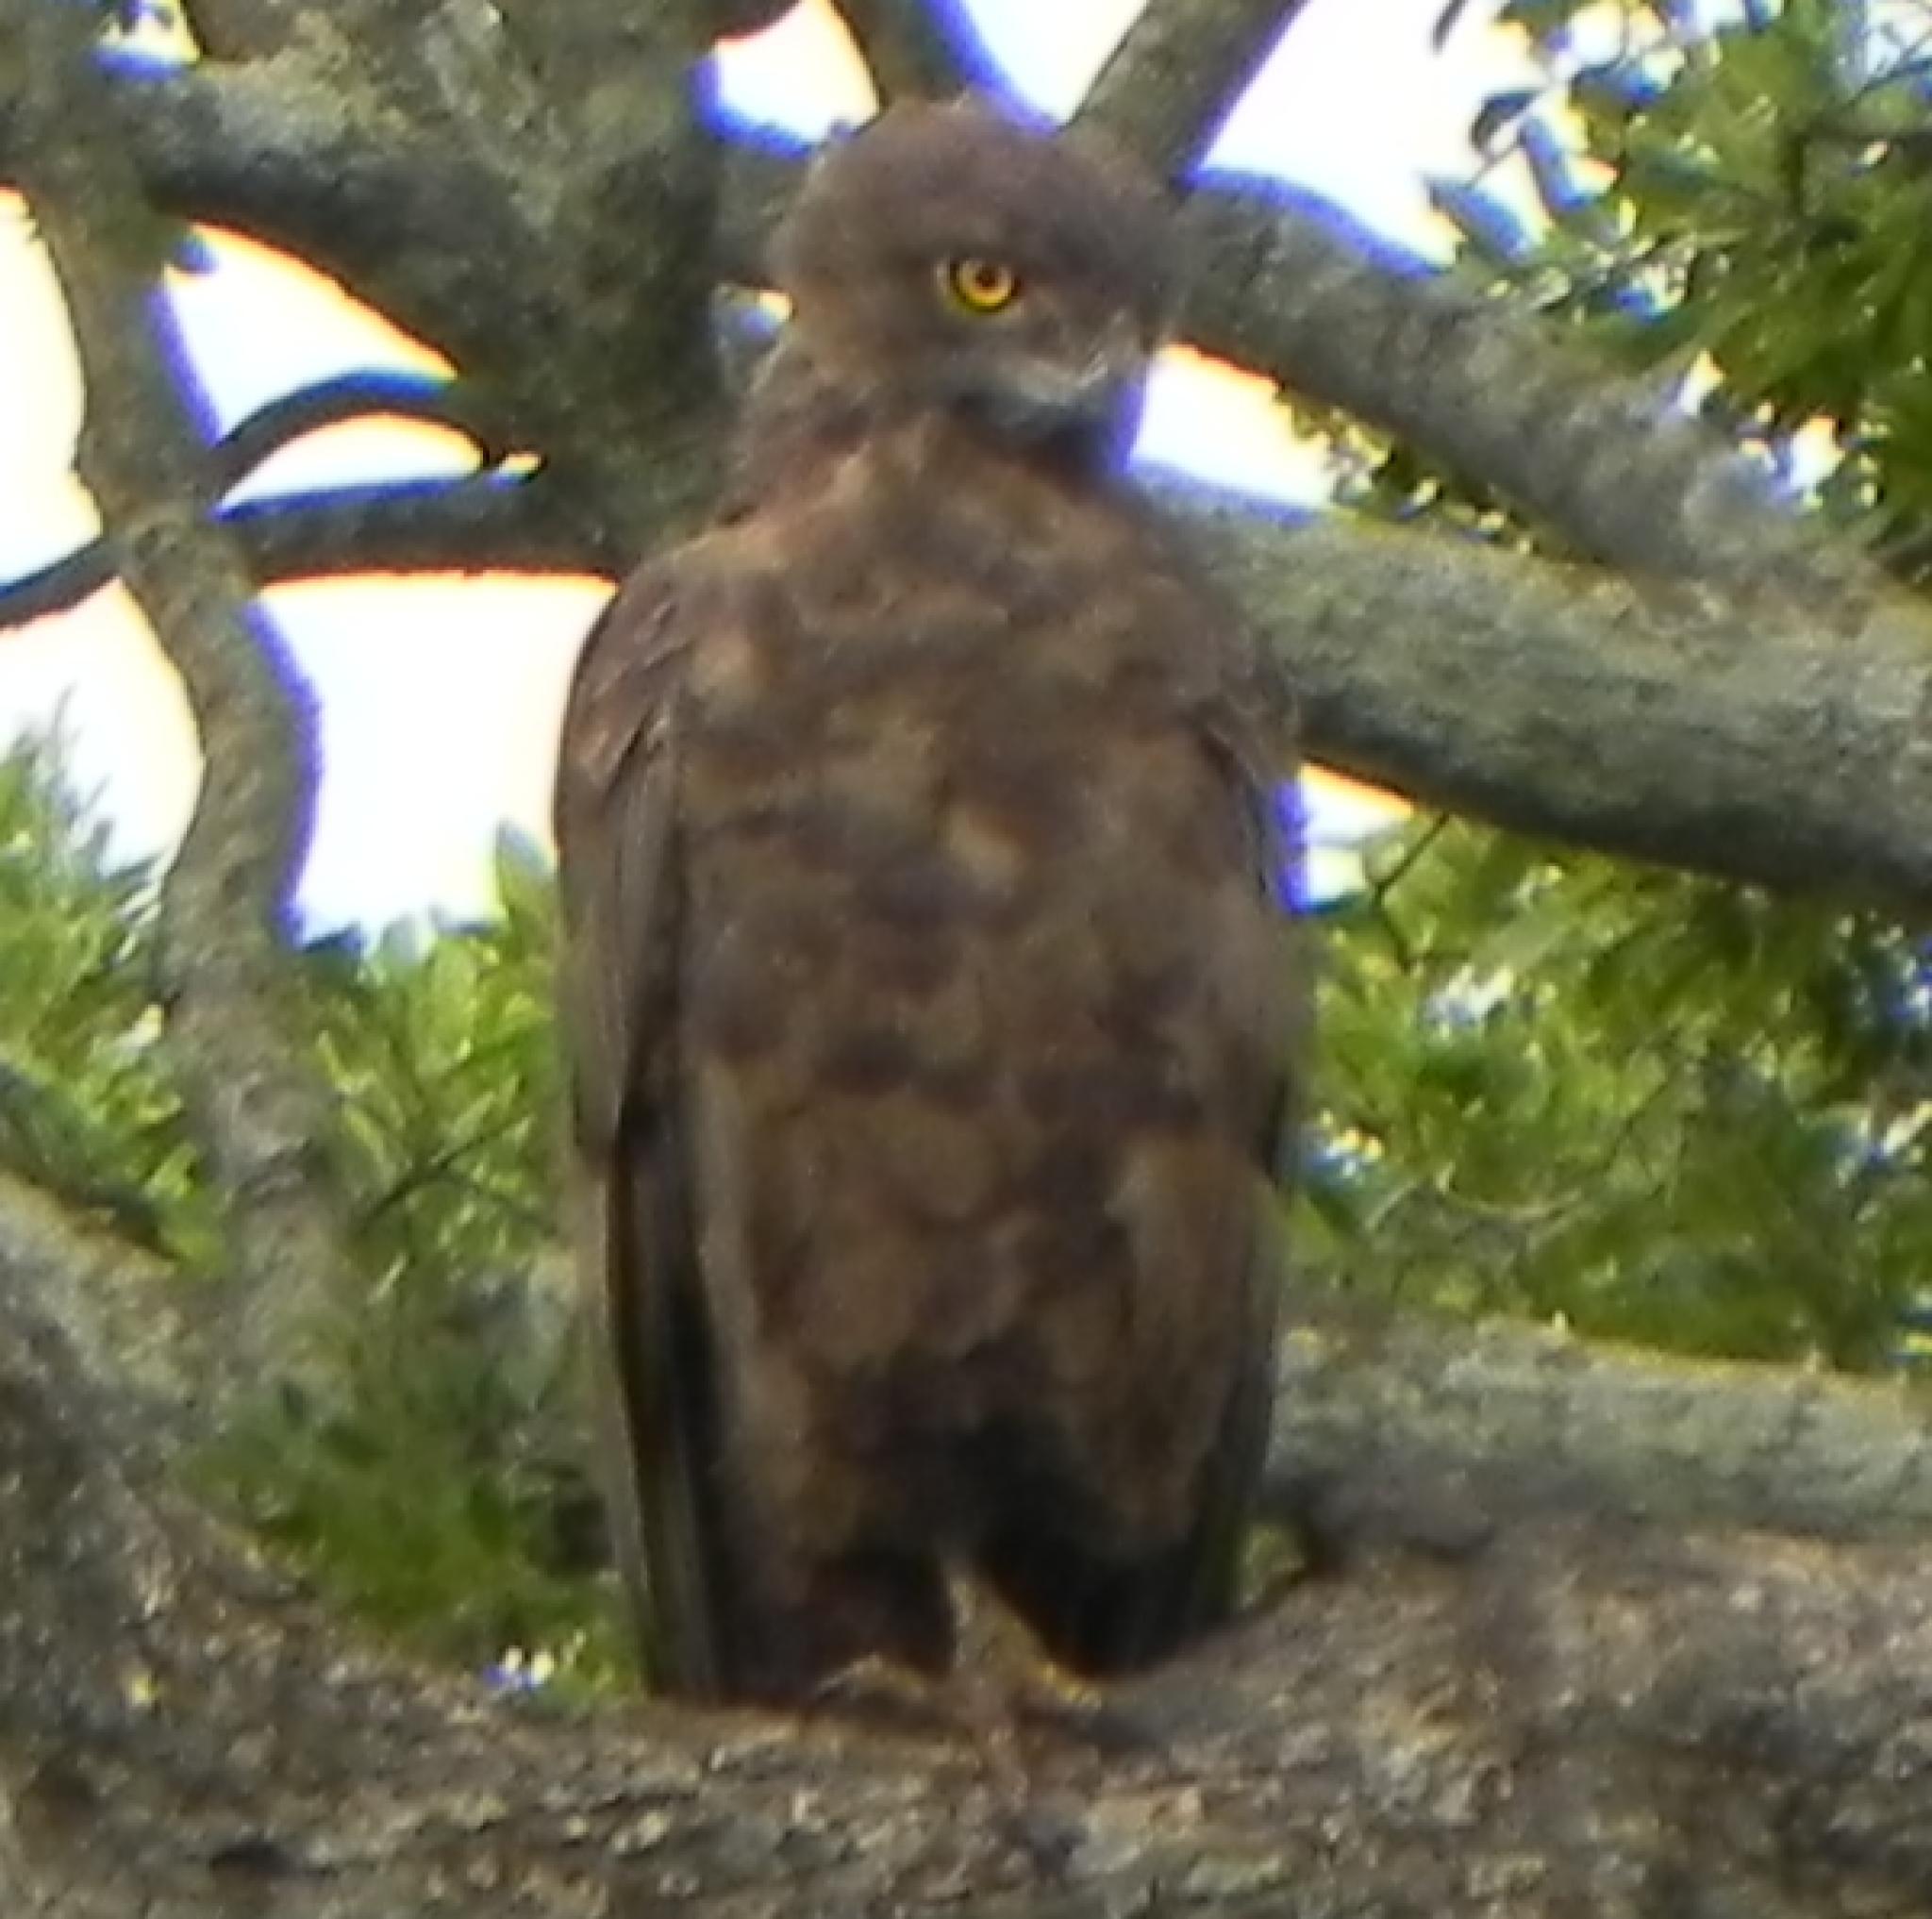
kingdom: Animalia
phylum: Chordata
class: Aves
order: Accipitriformes
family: Accipitridae
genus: Circaetus
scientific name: Circaetus cinereus
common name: Brown snake eagle
